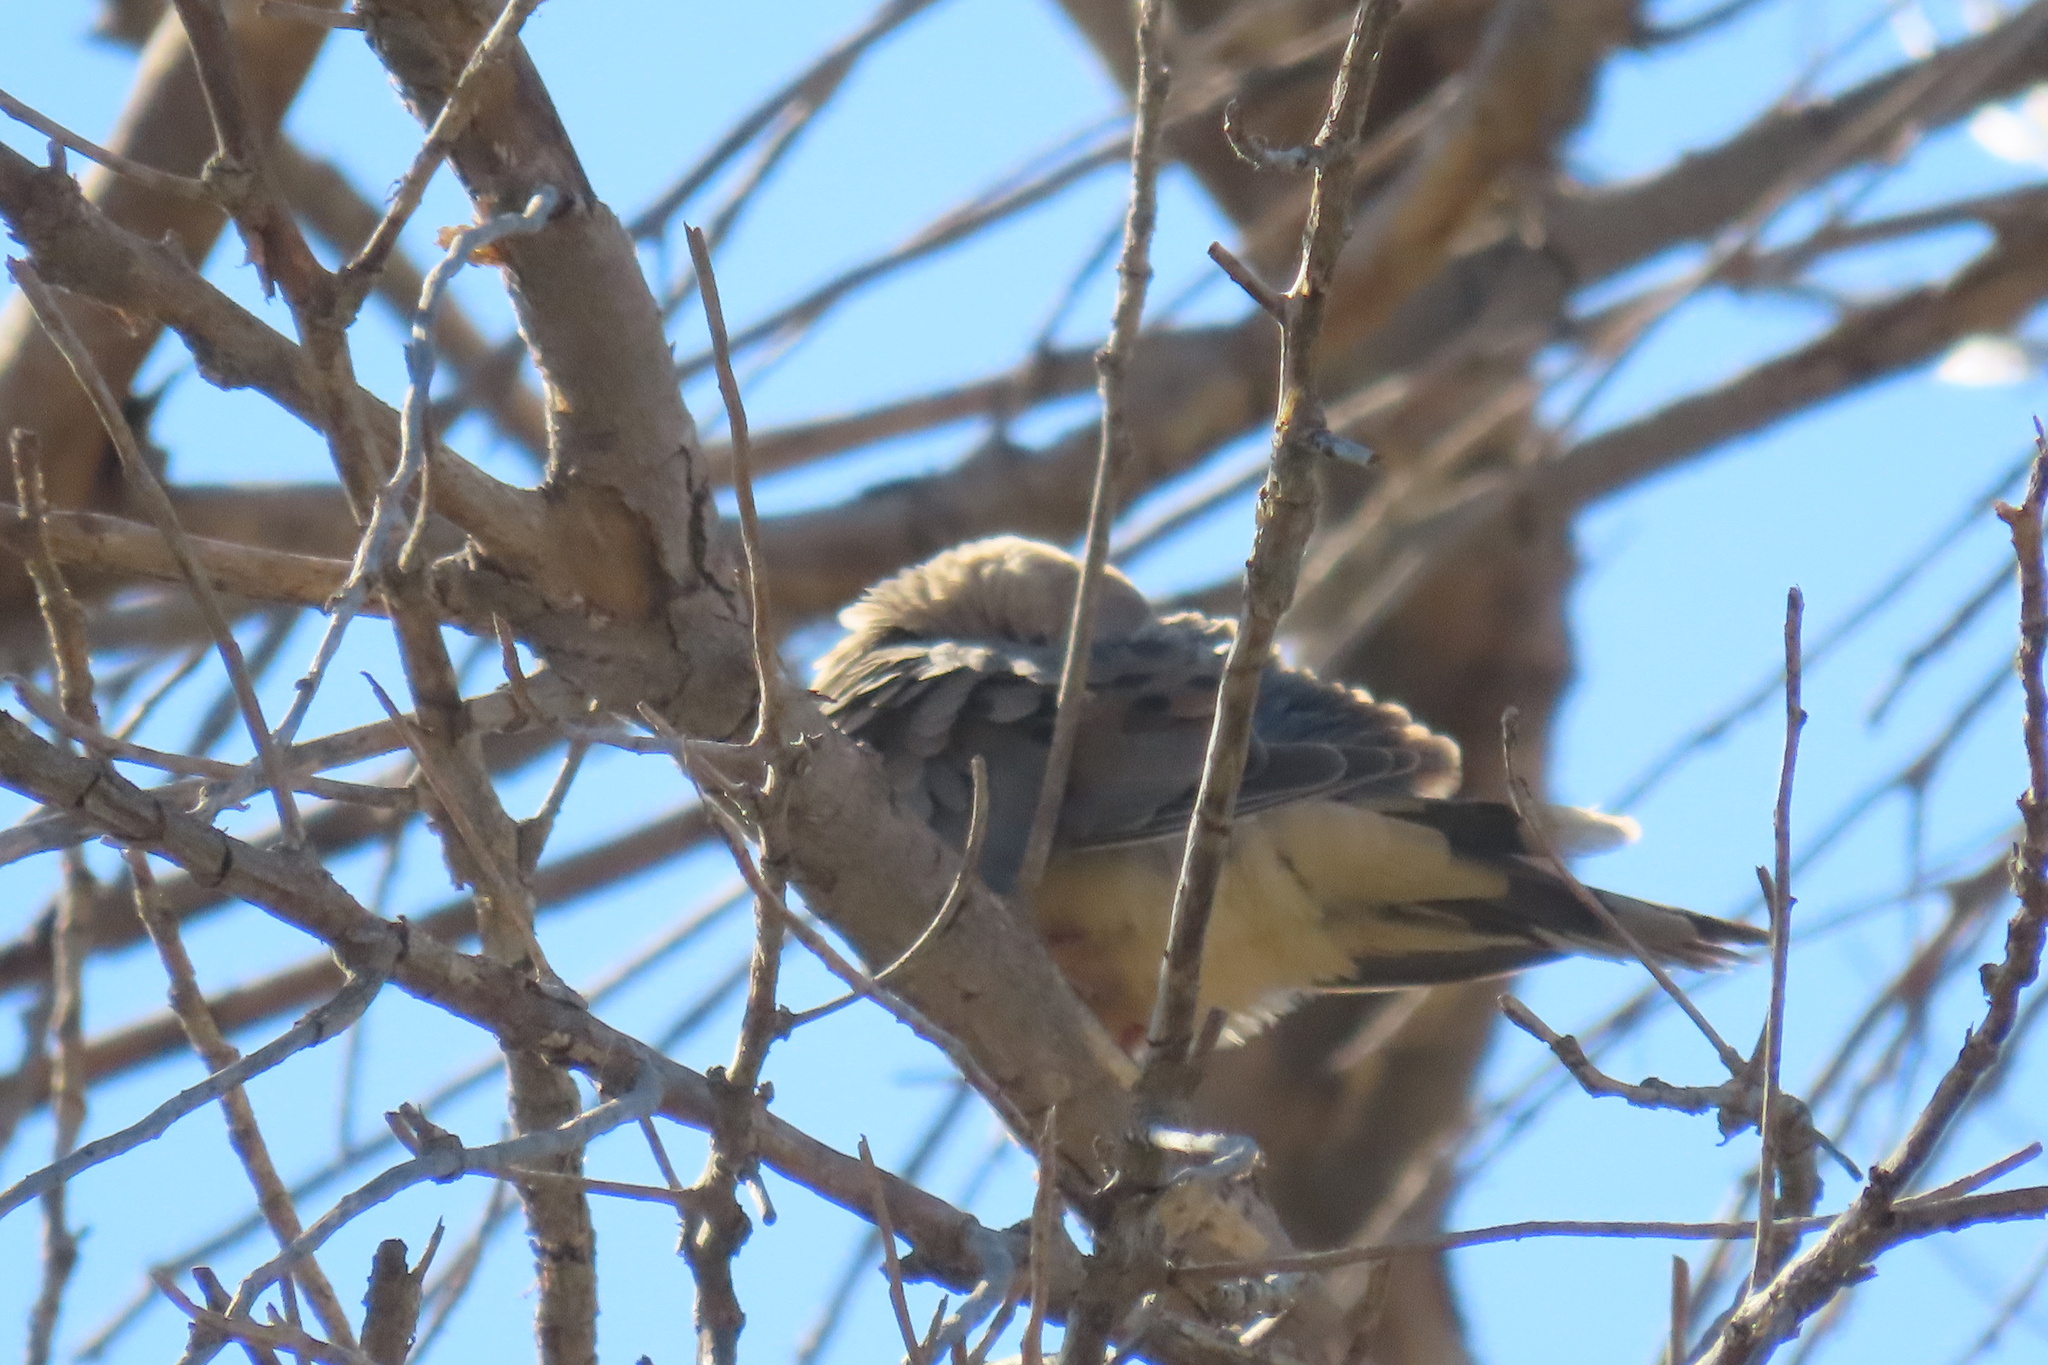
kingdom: Animalia
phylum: Chordata
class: Aves
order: Columbiformes
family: Columbidae
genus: Zenaida
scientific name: Zenaida macroura
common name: Mourning dove
